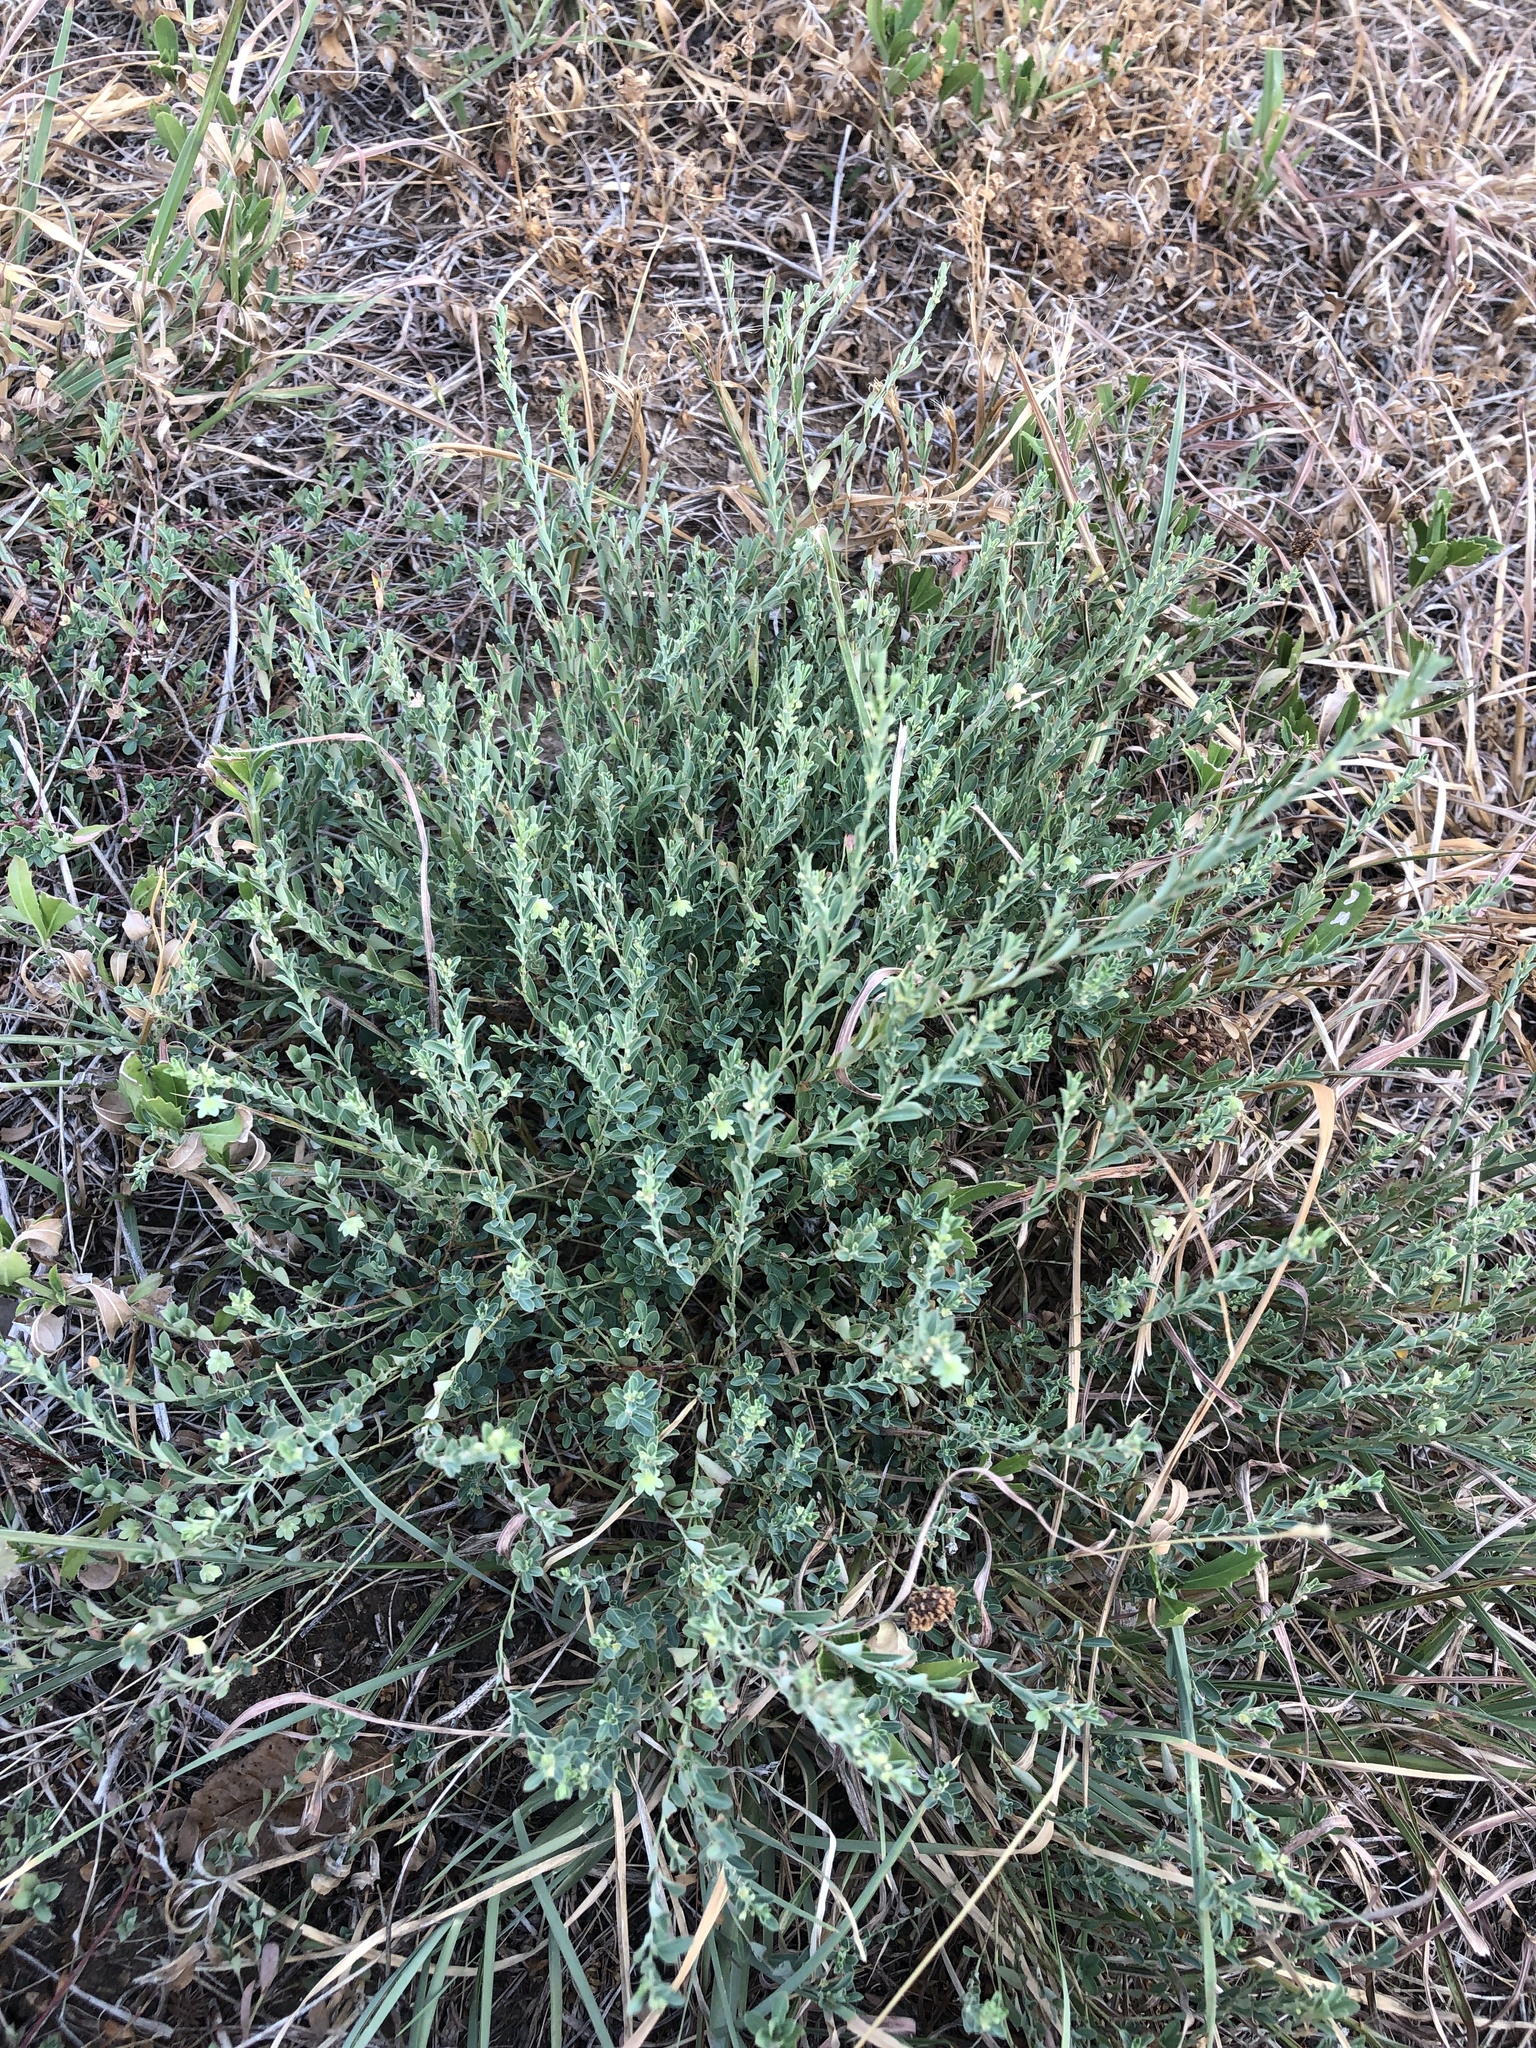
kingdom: Plantae
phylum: Tracheophyta
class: Magnoliopsida
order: Malpighiales
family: Phyllanthaceae
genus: Phyllanthus
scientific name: Phyllanthus polygonoides
